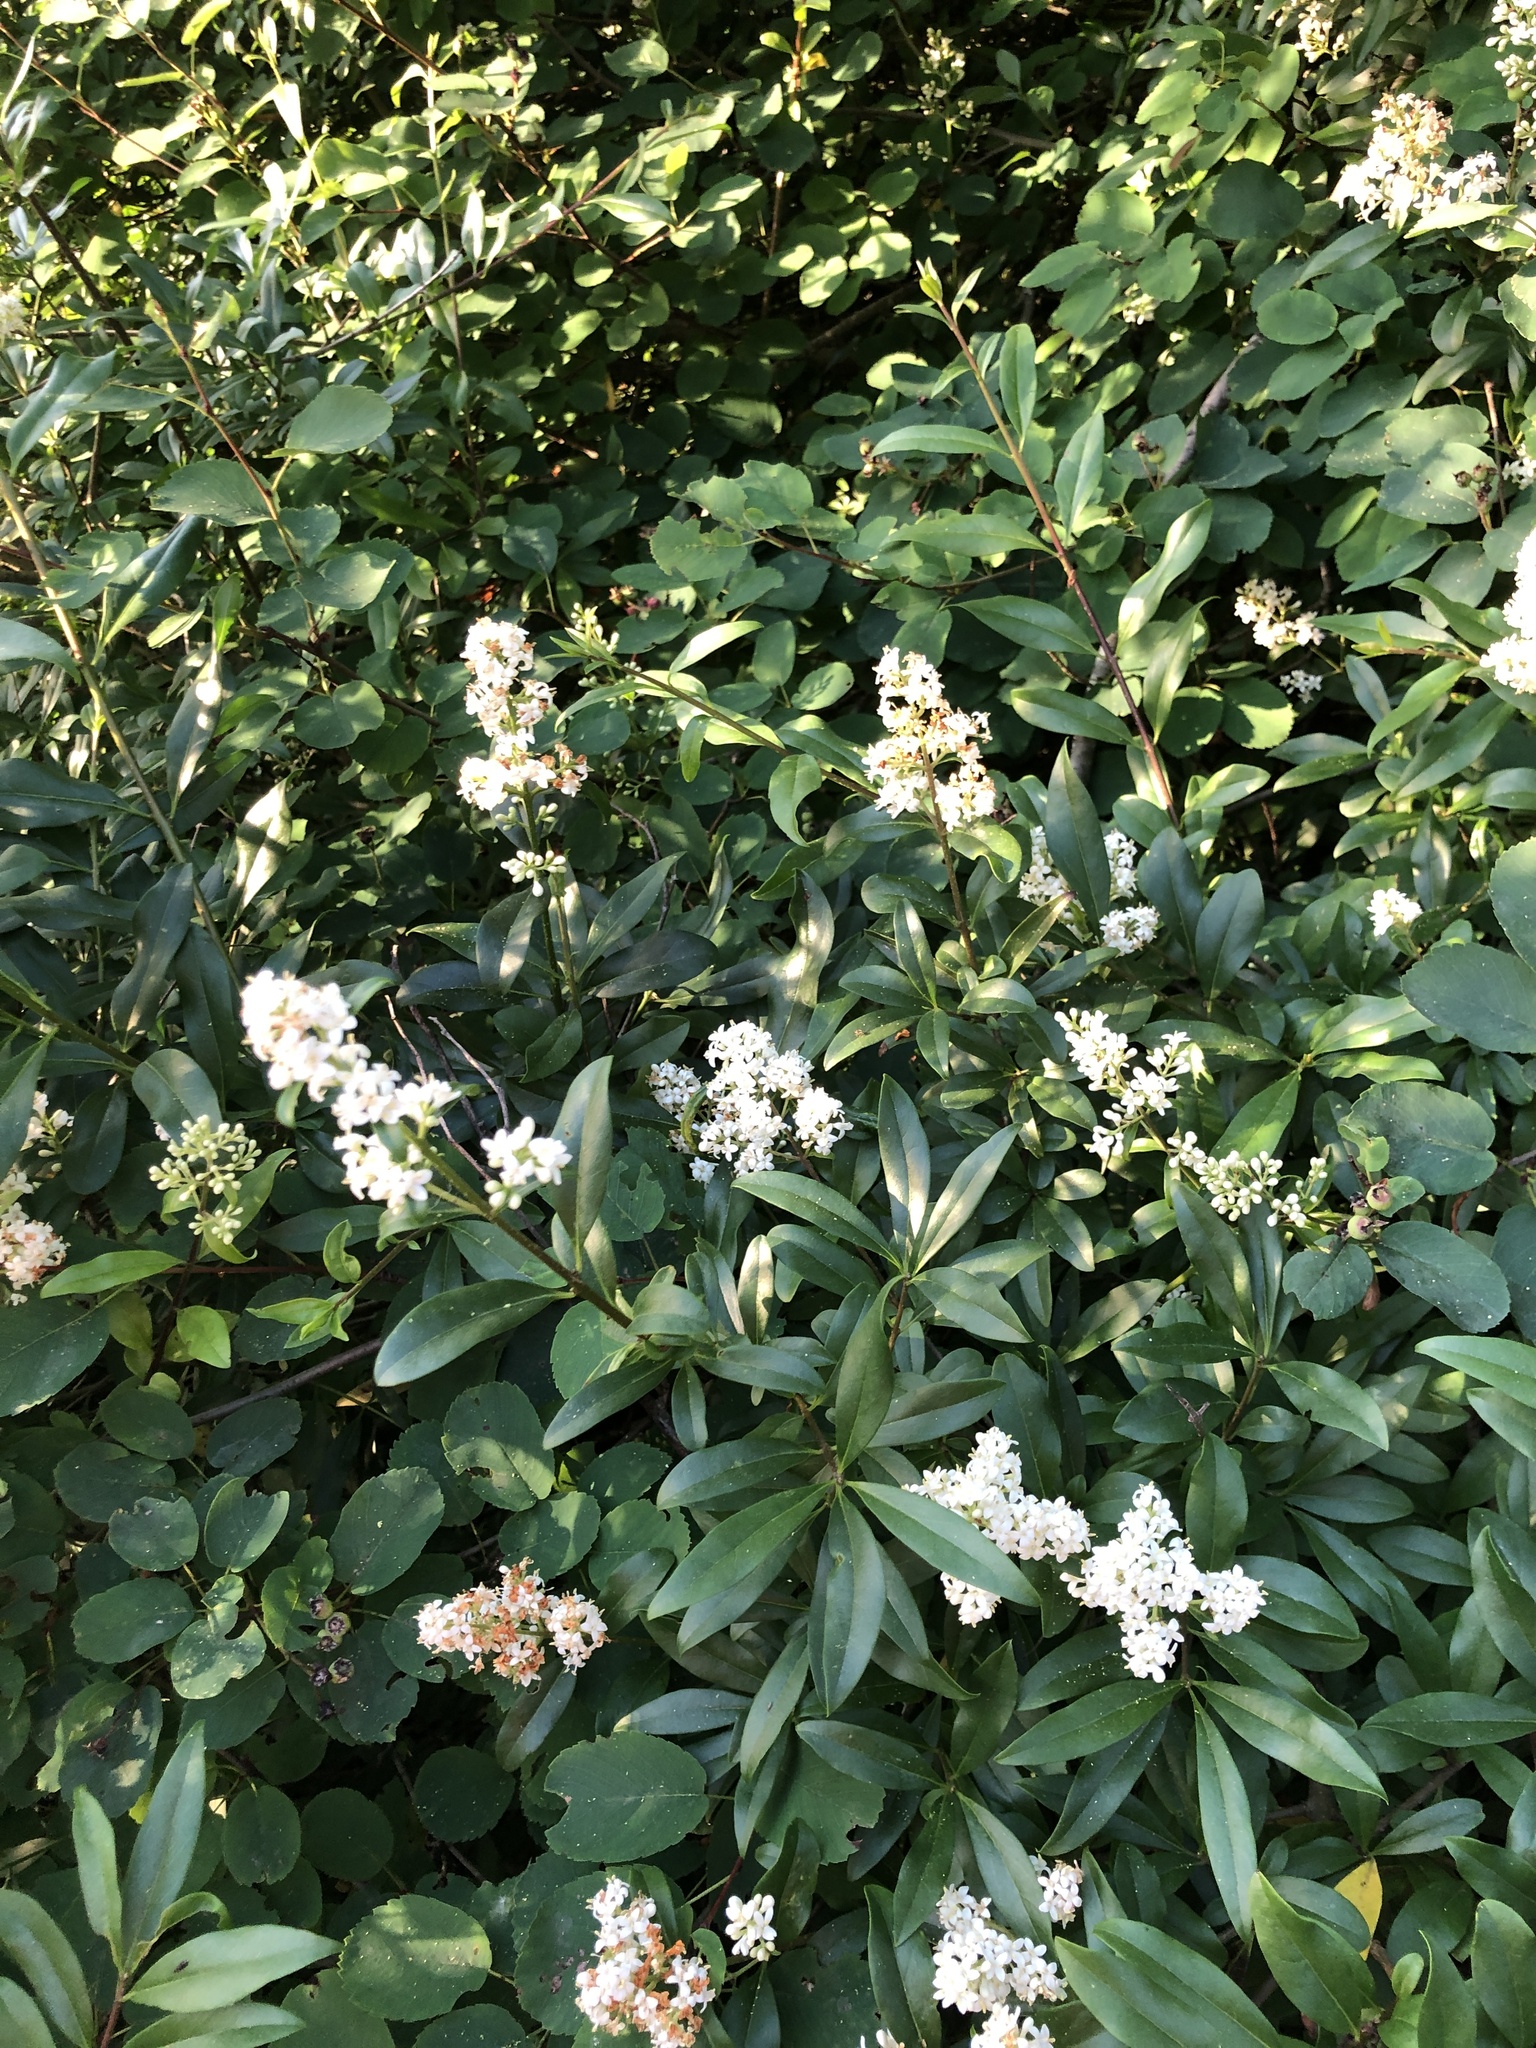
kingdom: Plantae
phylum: Tracheophyta
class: Magnoliopsida
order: Lamiales
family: Oleaceae
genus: Ligustrum
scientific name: Ligustrum vulgare
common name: Wild privet
